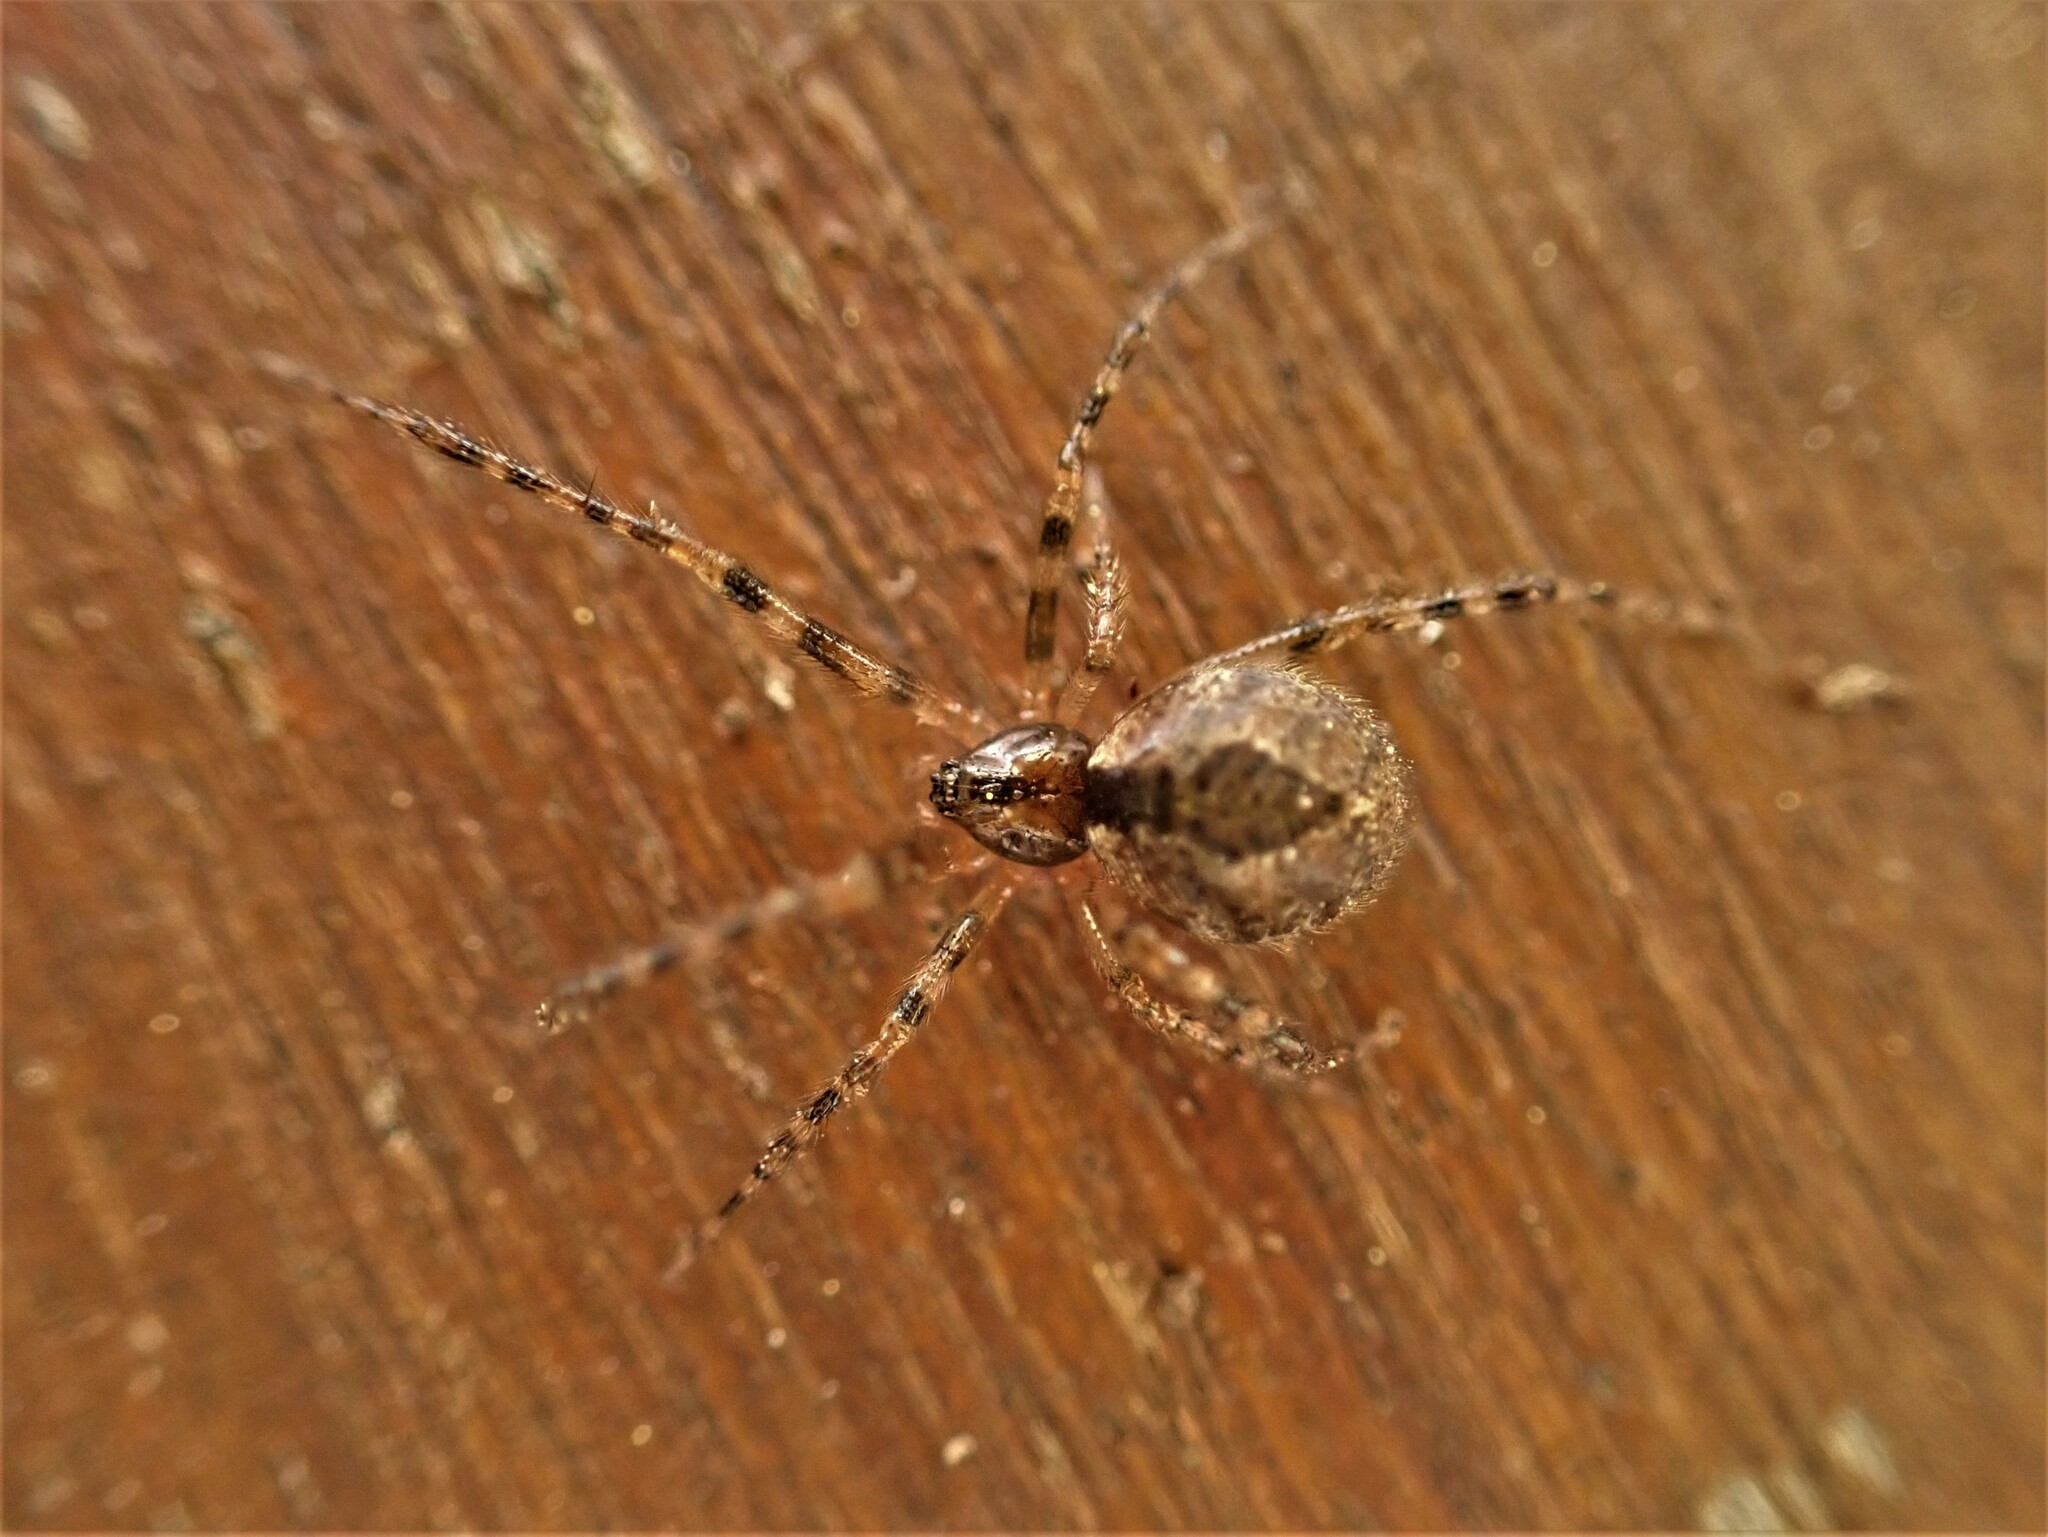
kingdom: Animalia
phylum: Arthropoda
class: Arachnida
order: Araneae
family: Theridiidae
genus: Cryptachaea
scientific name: Cryptachaea veruculata
